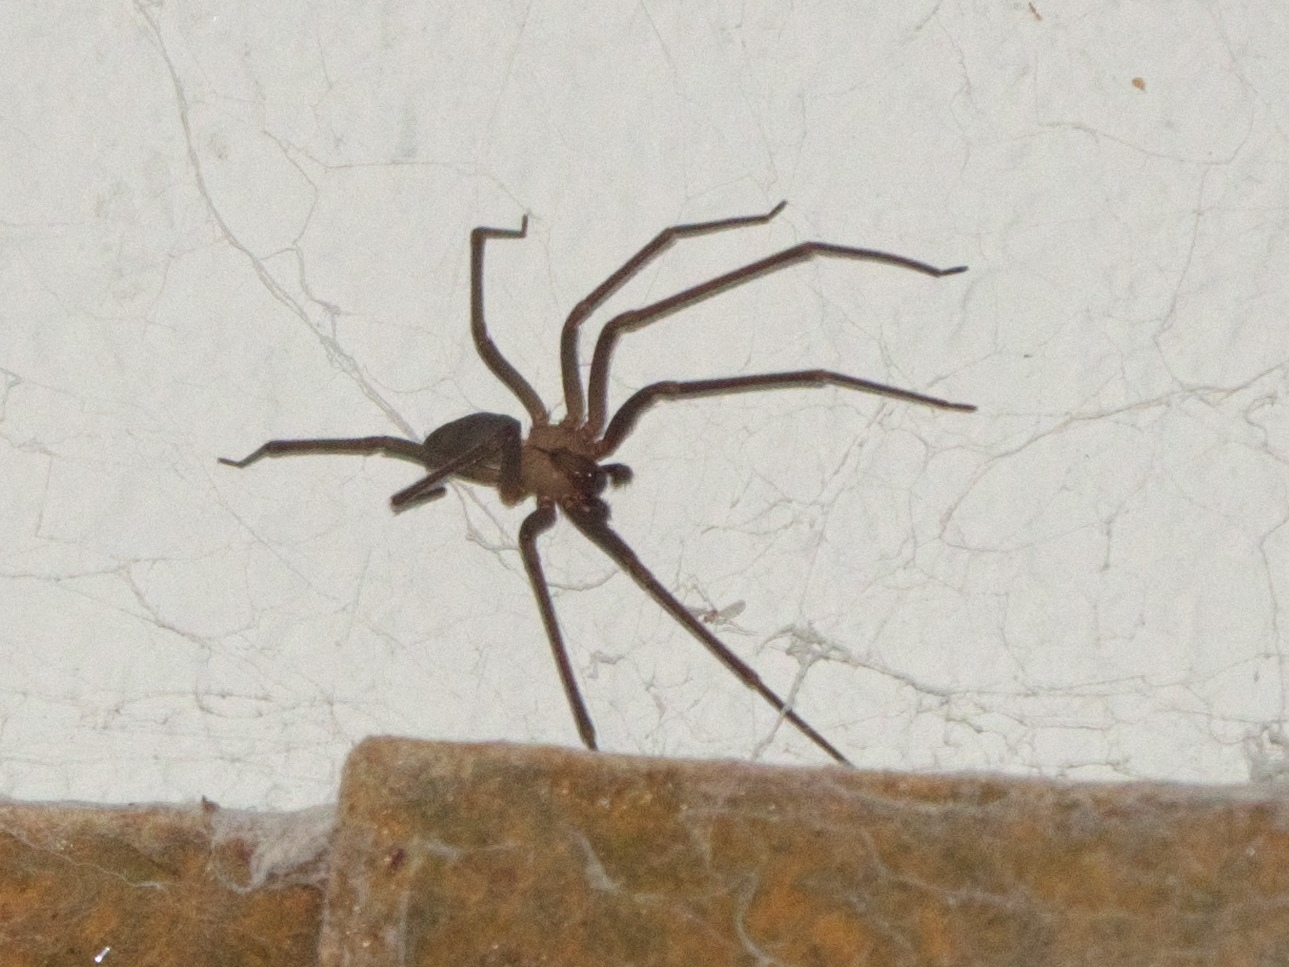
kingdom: Animalia
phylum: Arthropoda
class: Arachnida
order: Araneae
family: Sicariidae
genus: Loxosceles
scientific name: Loxosceles reclusa
